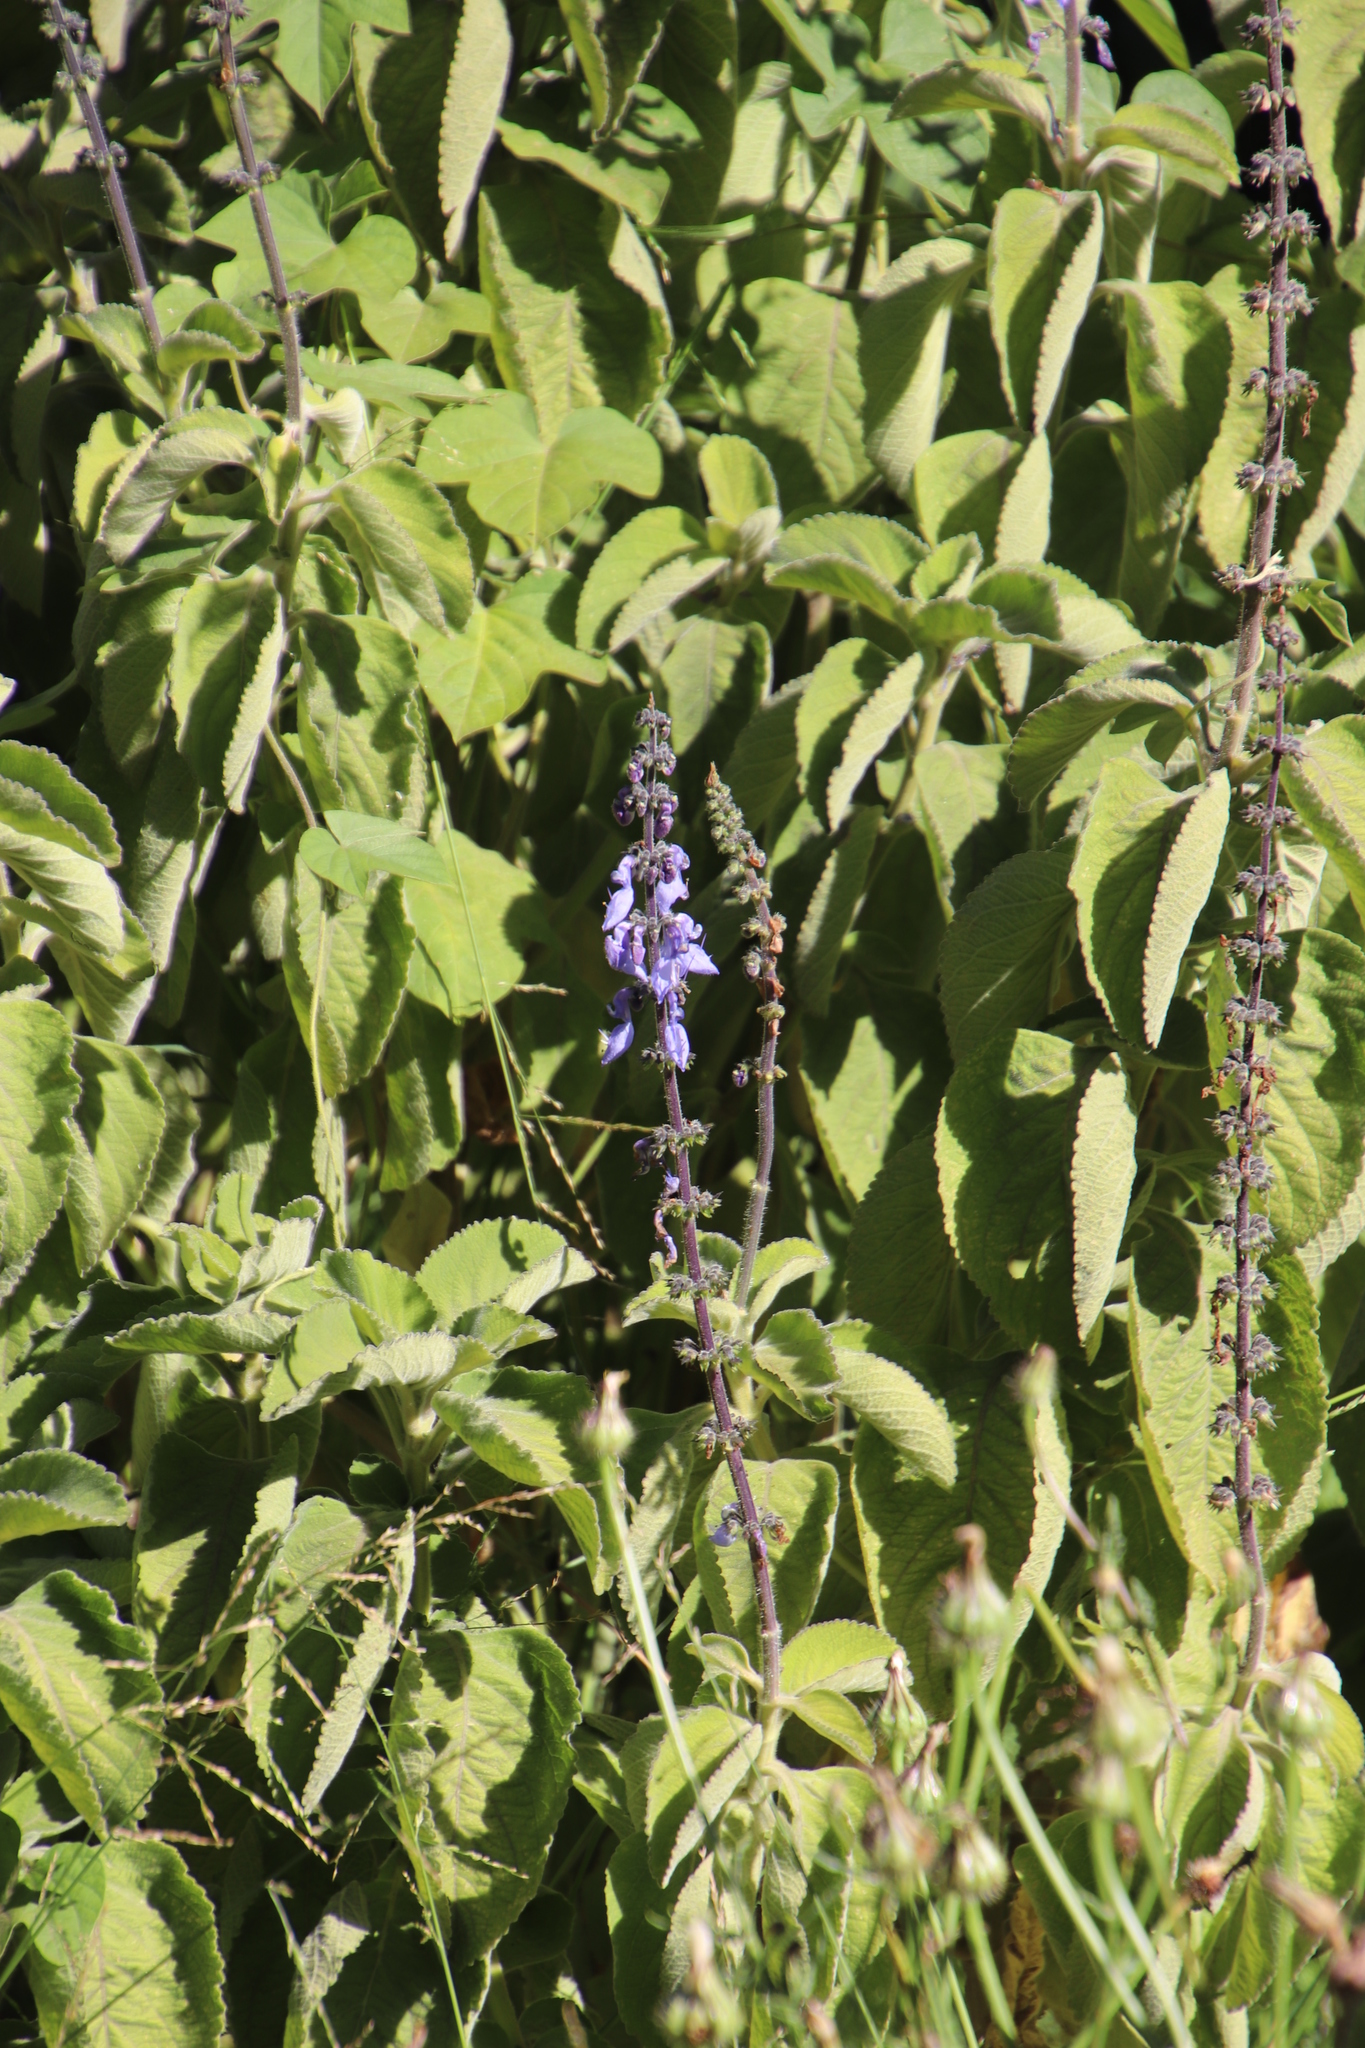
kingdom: Plantae
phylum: Tracheophyta
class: Magnoliopsida
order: Lamiales
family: Lamiaceae
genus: Coleus
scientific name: Coleus barbatus
